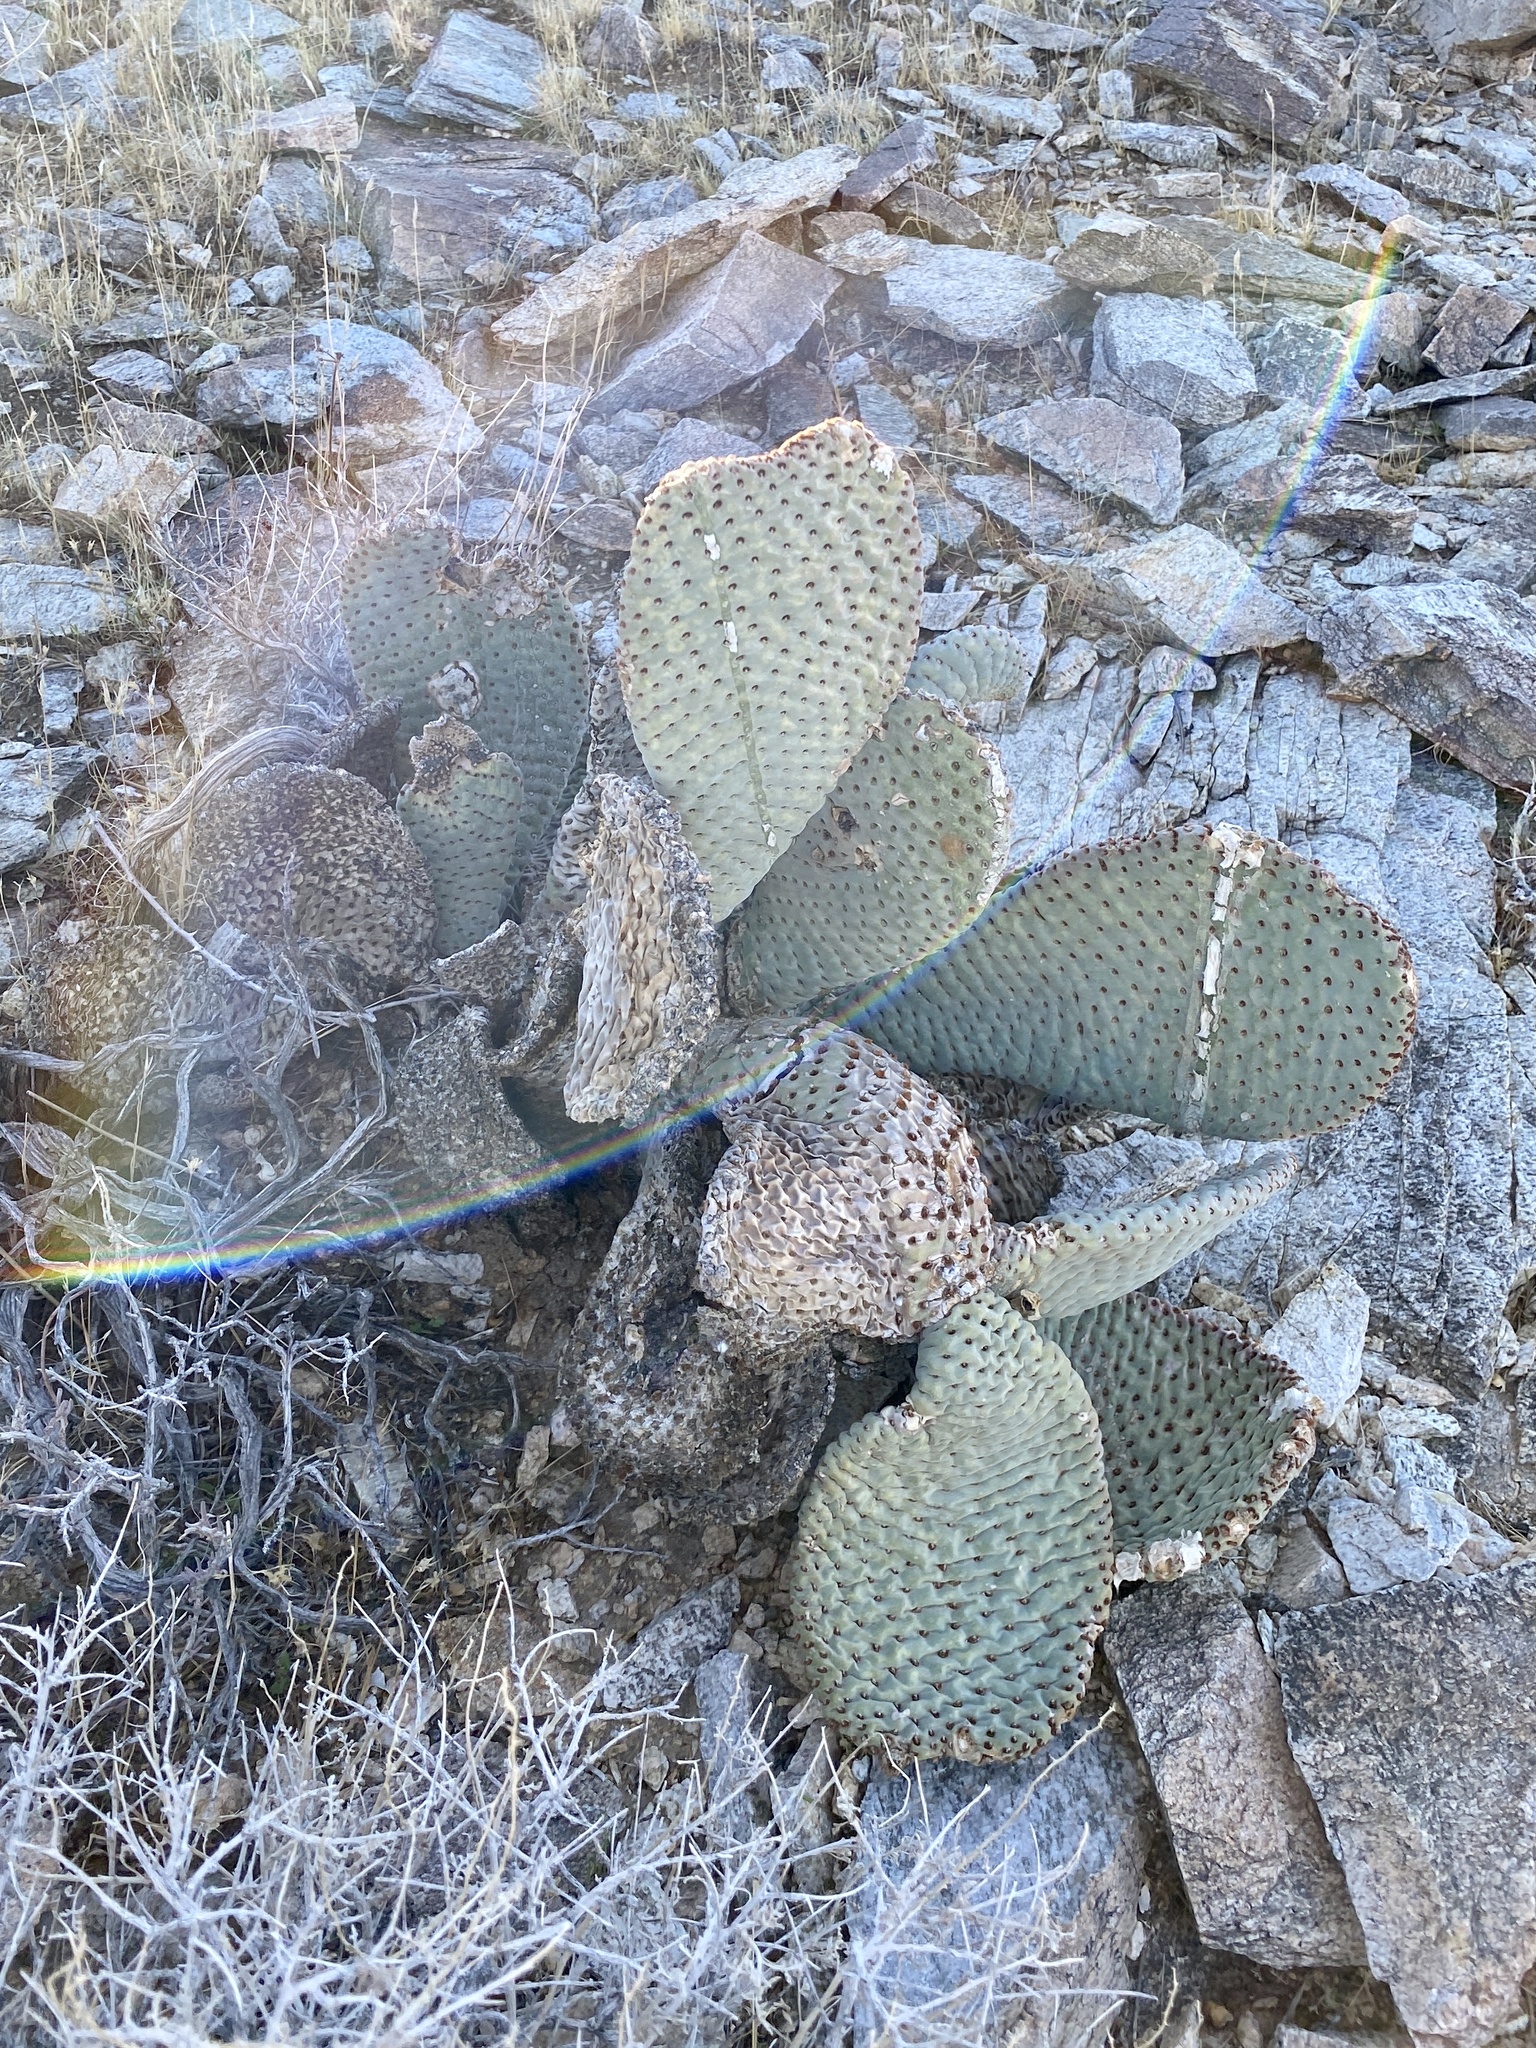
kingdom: Plantae
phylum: Tracheophyta
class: Magnoliopsida
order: Caryophyllales
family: Cactaceae
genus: Opuntia
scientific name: Opuntia basilaris
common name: Beavertail prickly-pear
